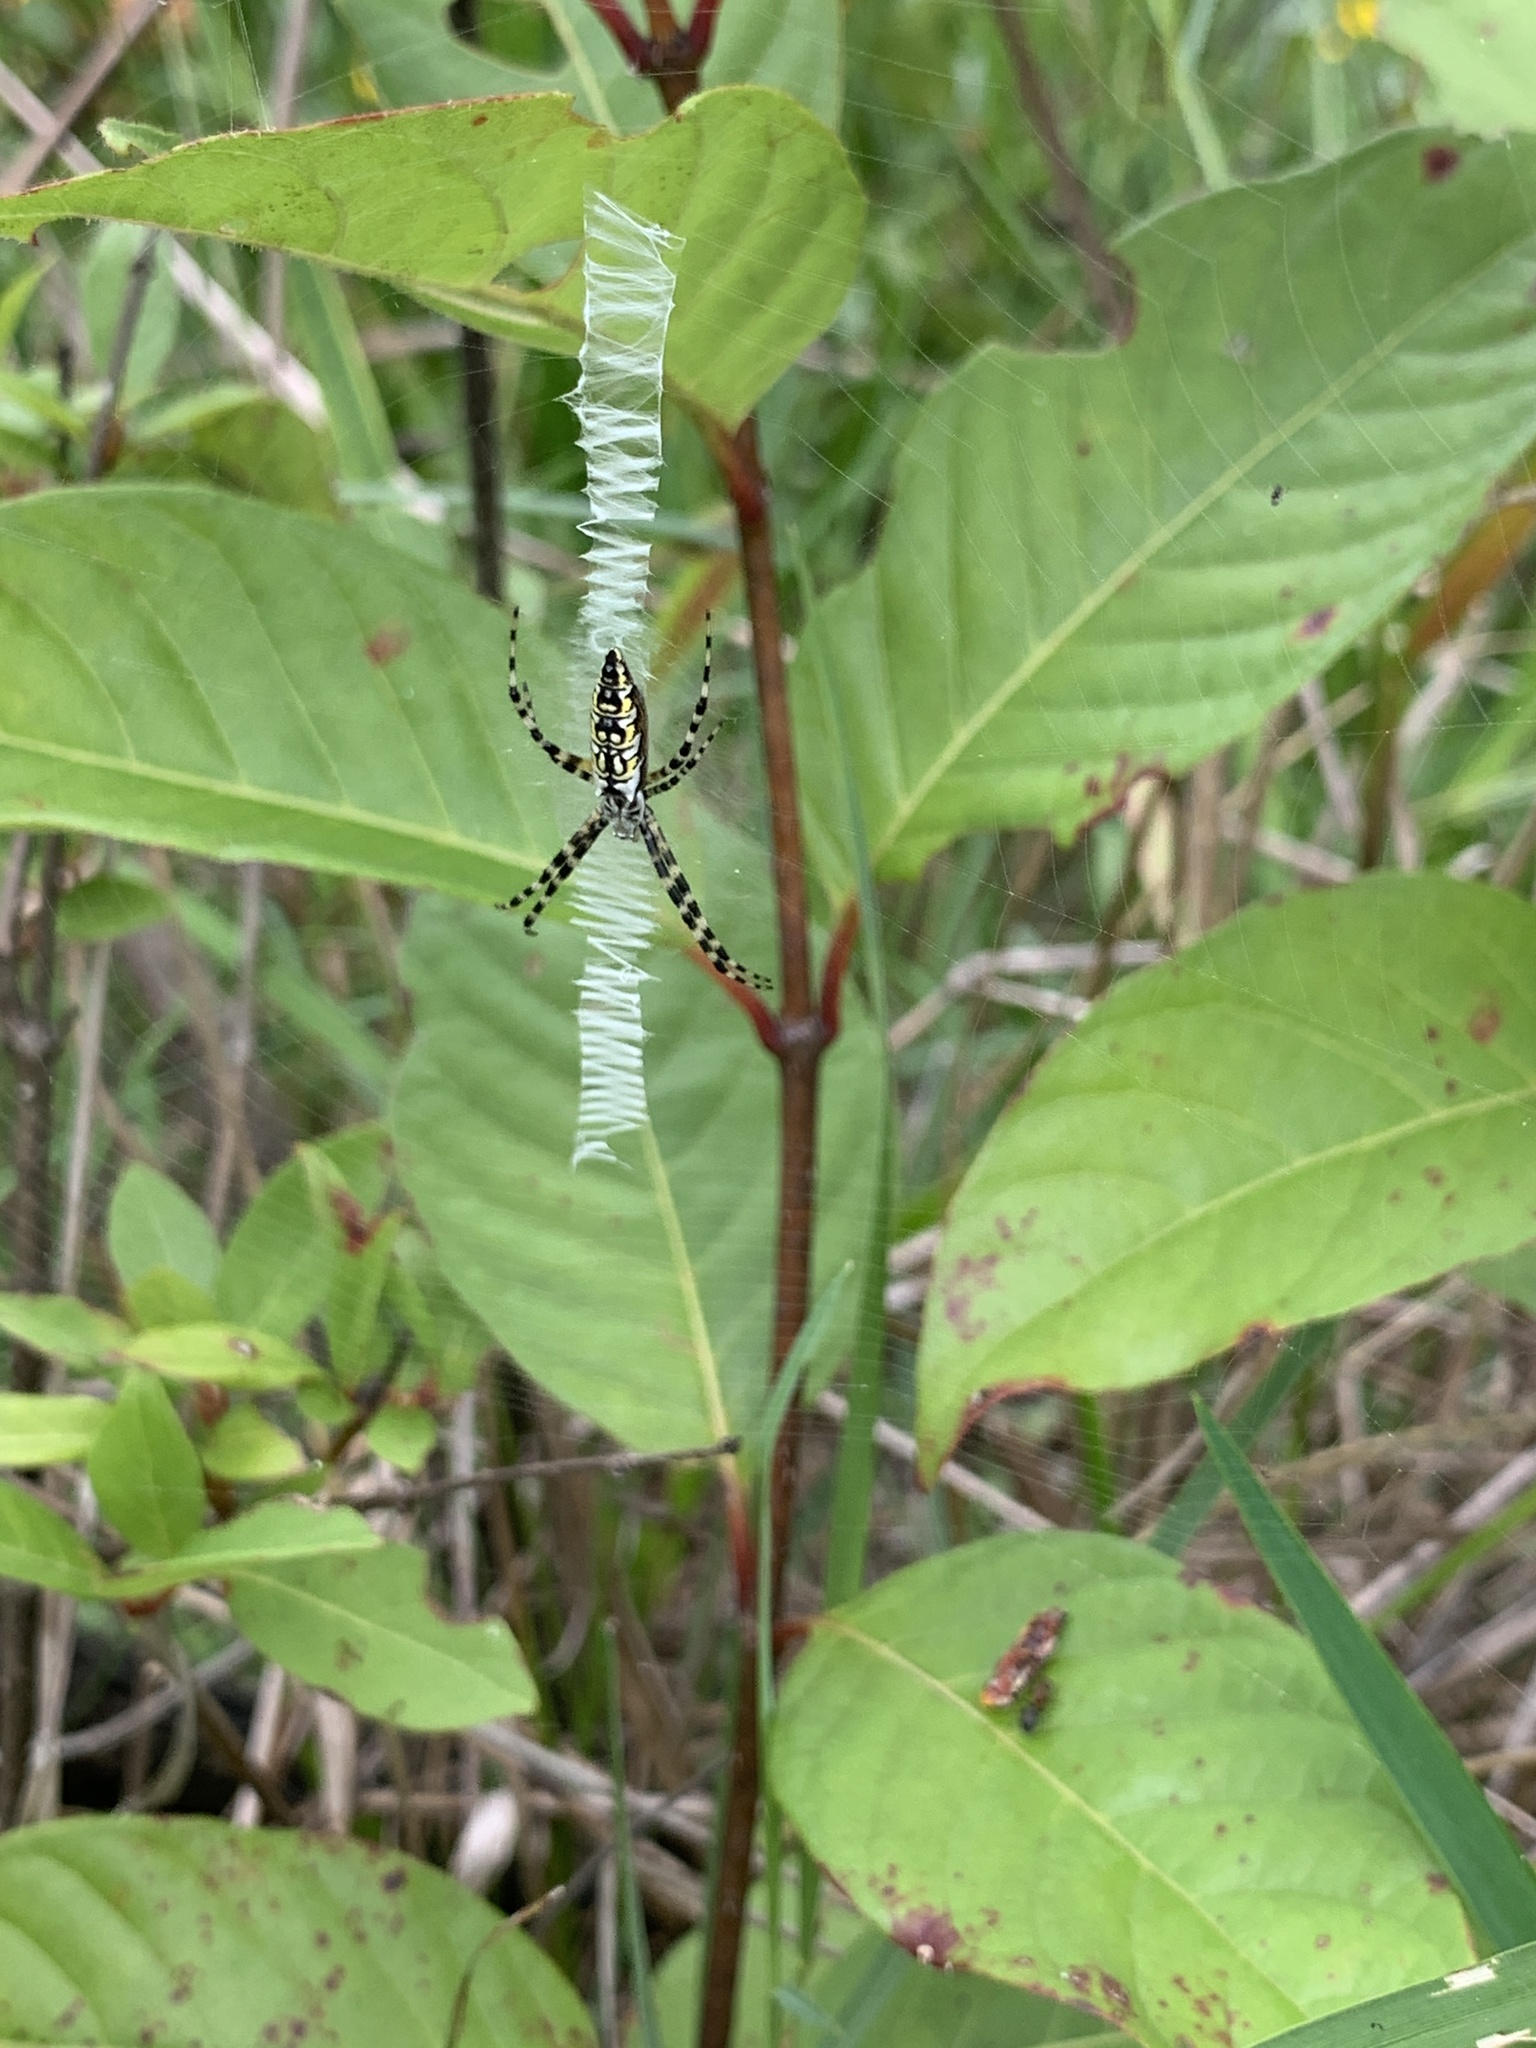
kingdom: Animalia
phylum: Arthropoda
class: Arachnida
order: Araneae
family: Araneidae
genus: Argiope
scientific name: Argiope aurantia
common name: Orb weavers
